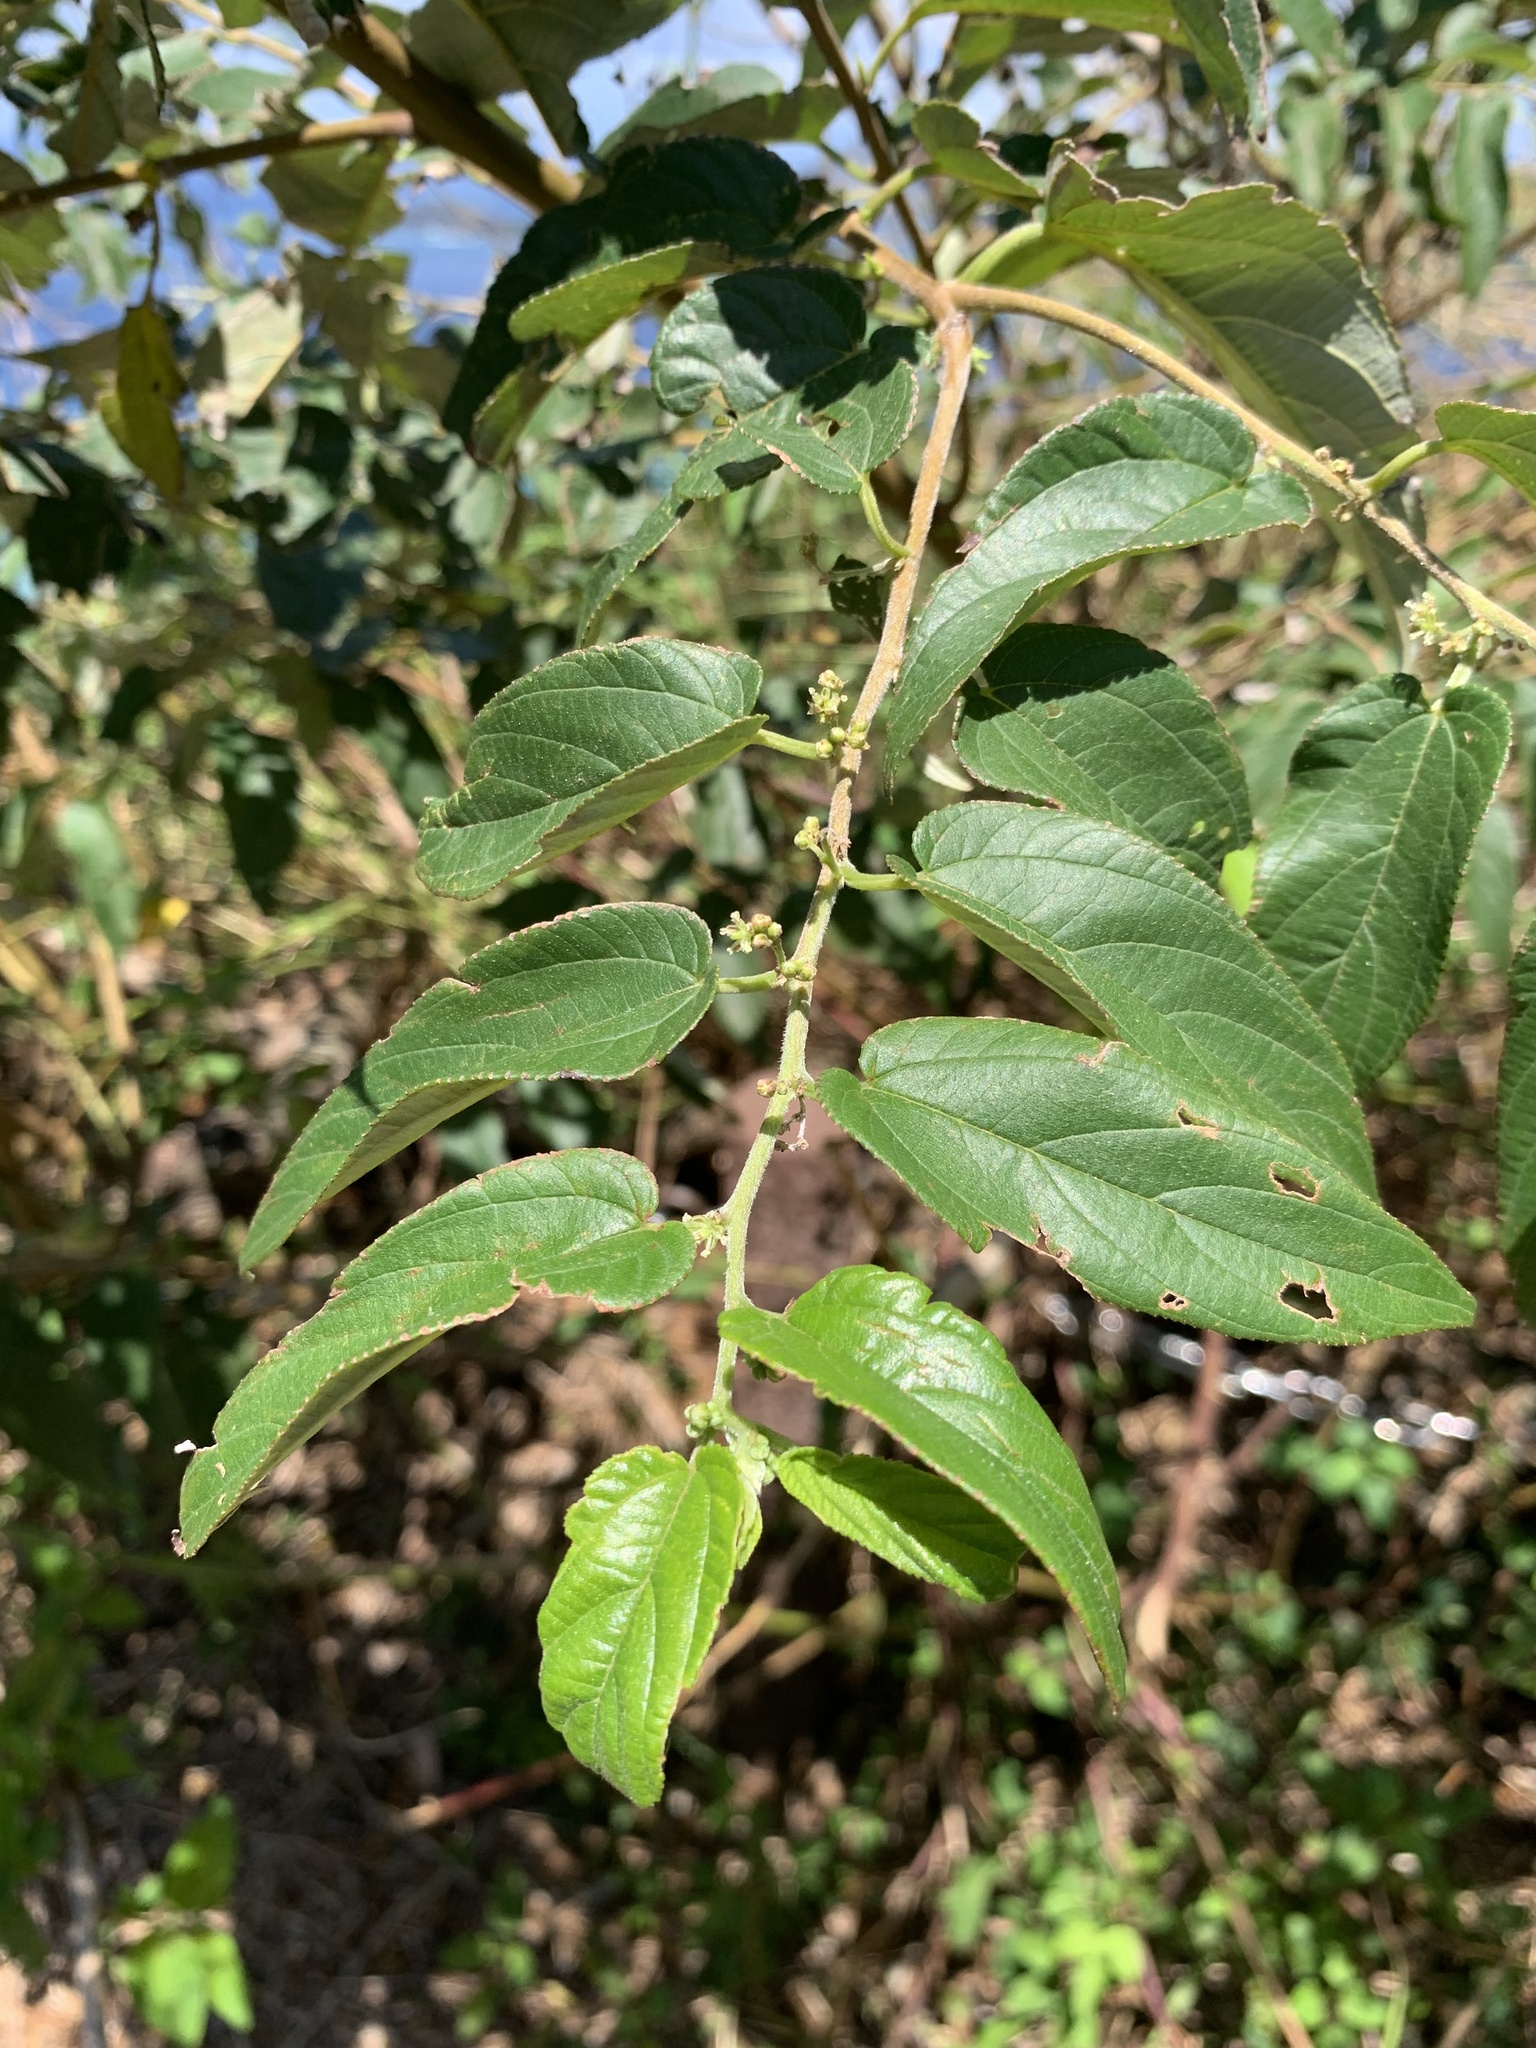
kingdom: Plantae
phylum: Tracheophyta
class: Magnoliopsida
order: Rosales
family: Cannabaceae
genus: Trema
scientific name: Trema orientale
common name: Indian charcoal tree
